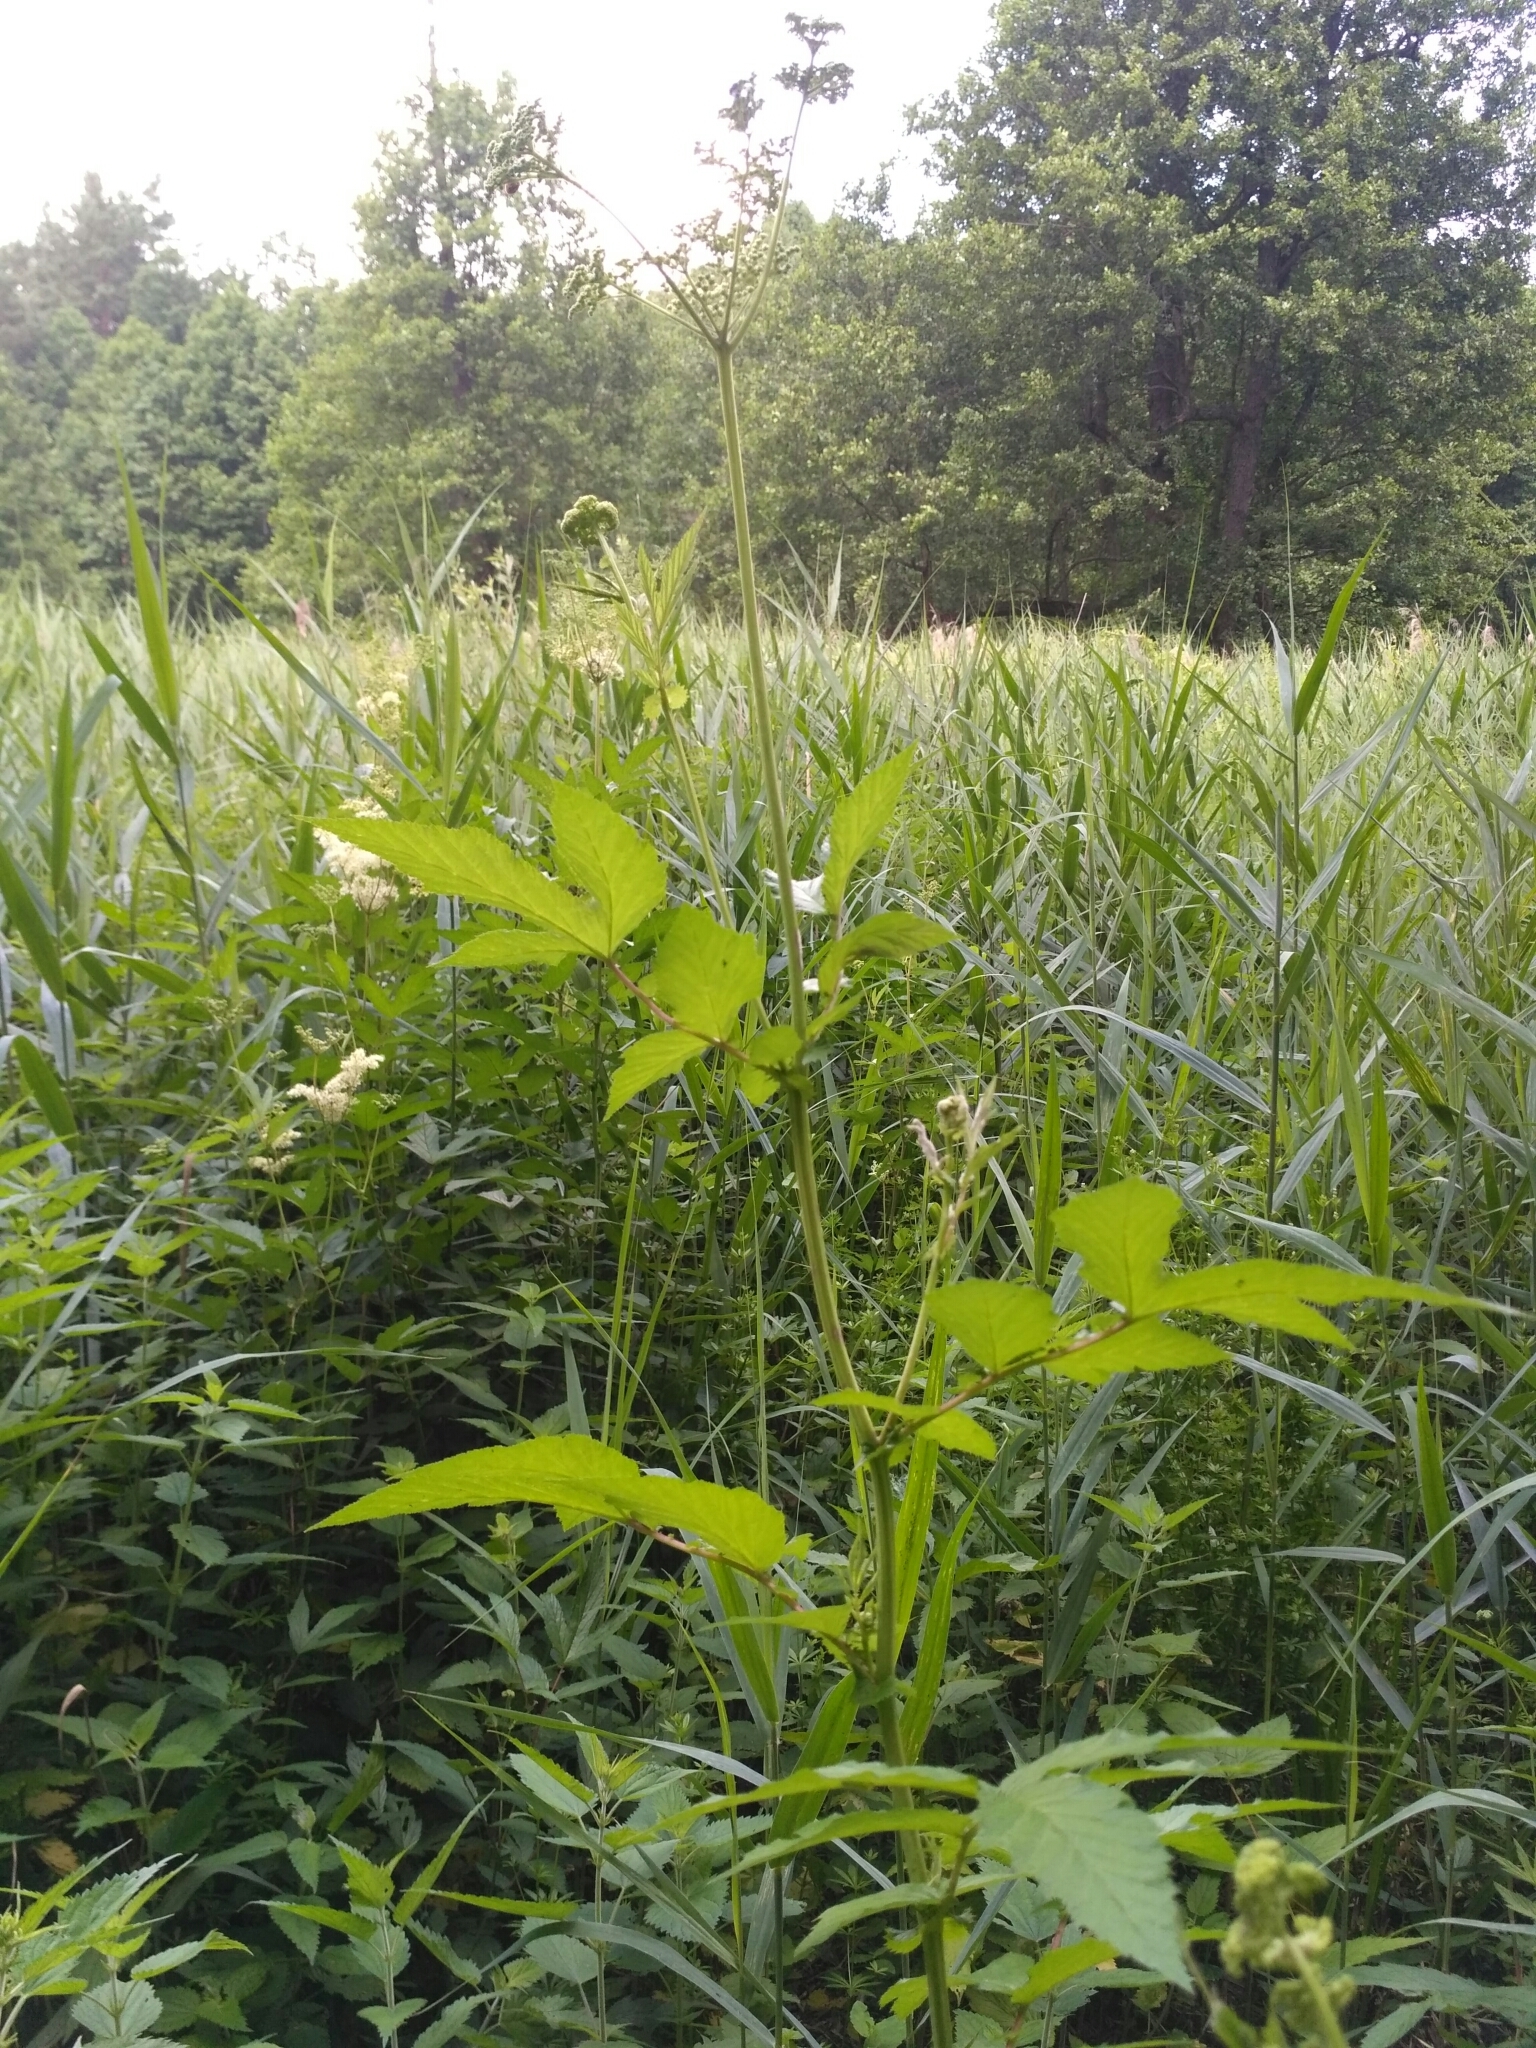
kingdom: Plantae
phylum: Tracheophyta
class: Magnoliopsida
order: Rosales
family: Rosaceae
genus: Filipendula
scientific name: Filipendula ulmaria
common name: Meadowsweet
